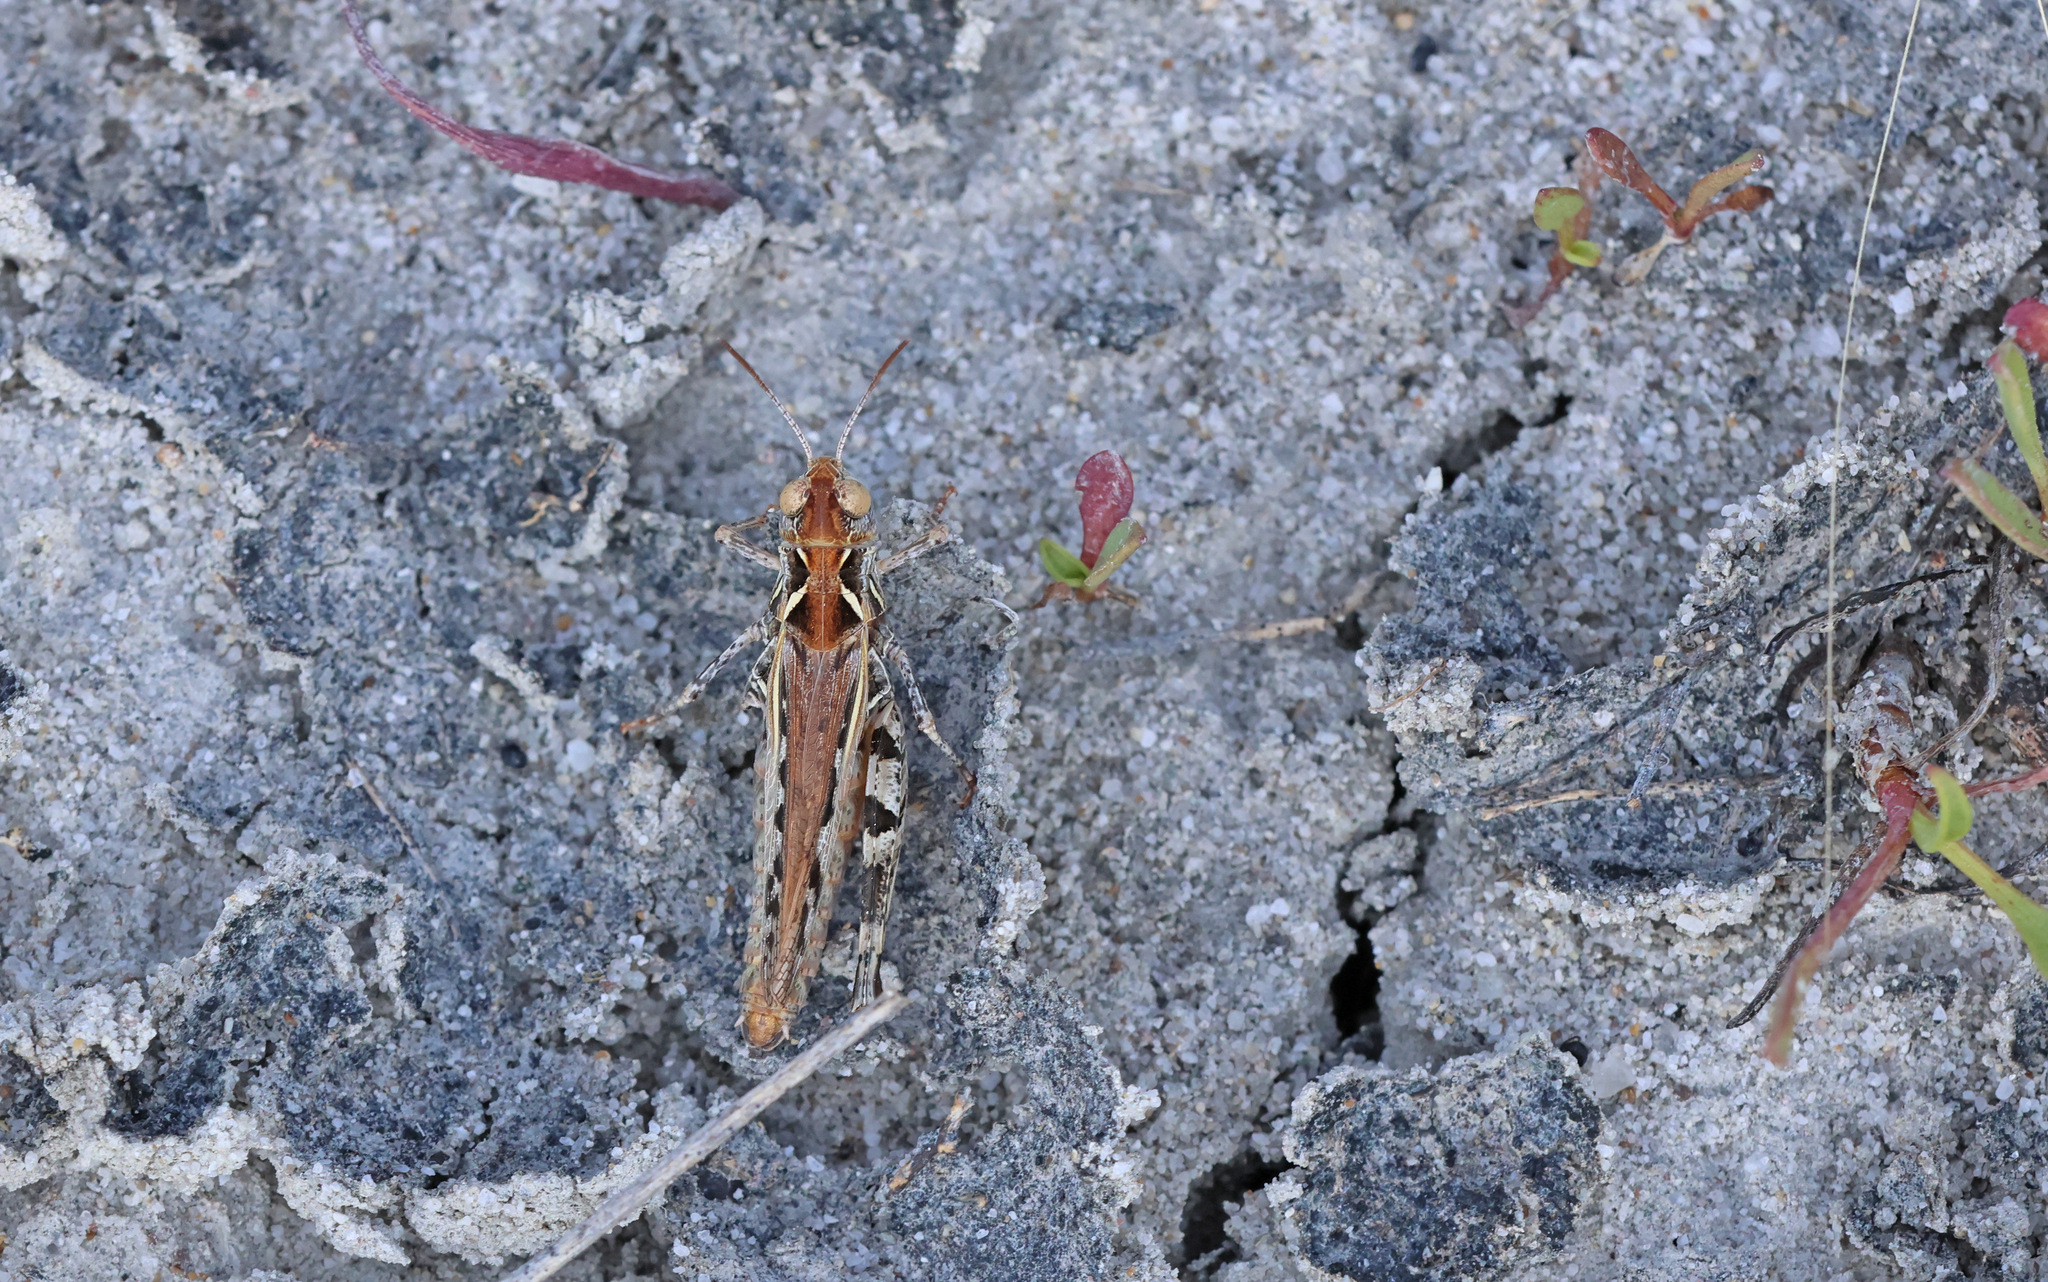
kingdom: Animalia
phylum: Arthropoda
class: Insecta
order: Orthoptera
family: Acrididae
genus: Dociostaurus
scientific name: Dociostaurus brevicollis
